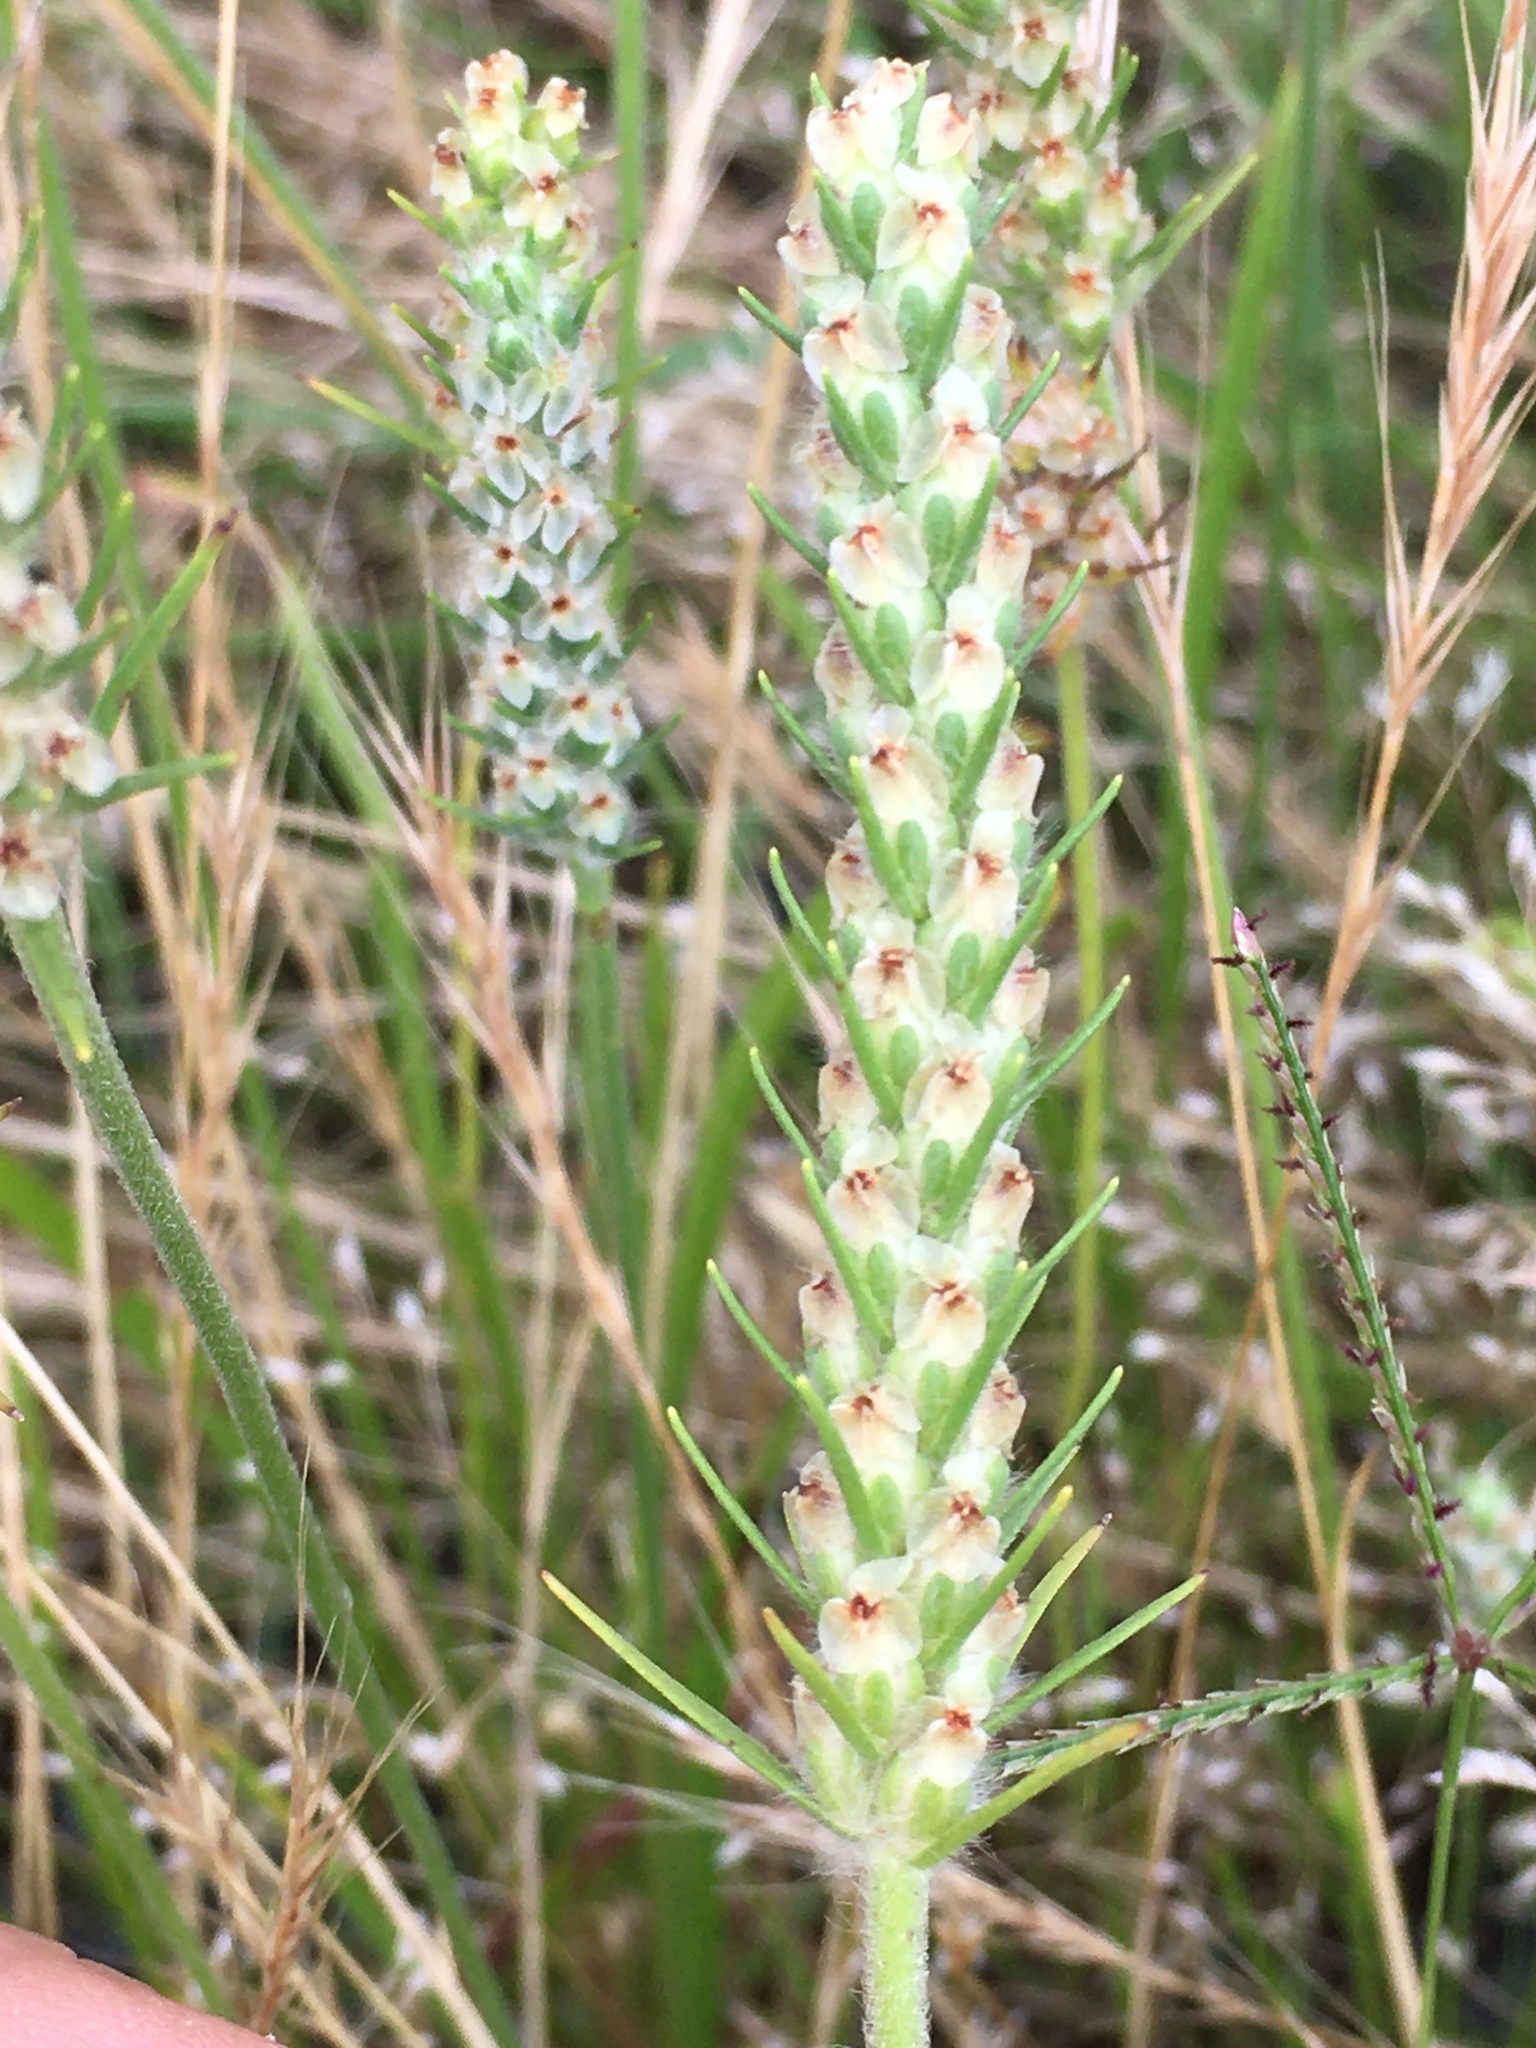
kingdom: Plantae
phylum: Tracheophyta
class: Magnoliopsida
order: Lamiales
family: Plantaginaceae
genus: Plantago
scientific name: Plantago aristata
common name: Bracted plantain
